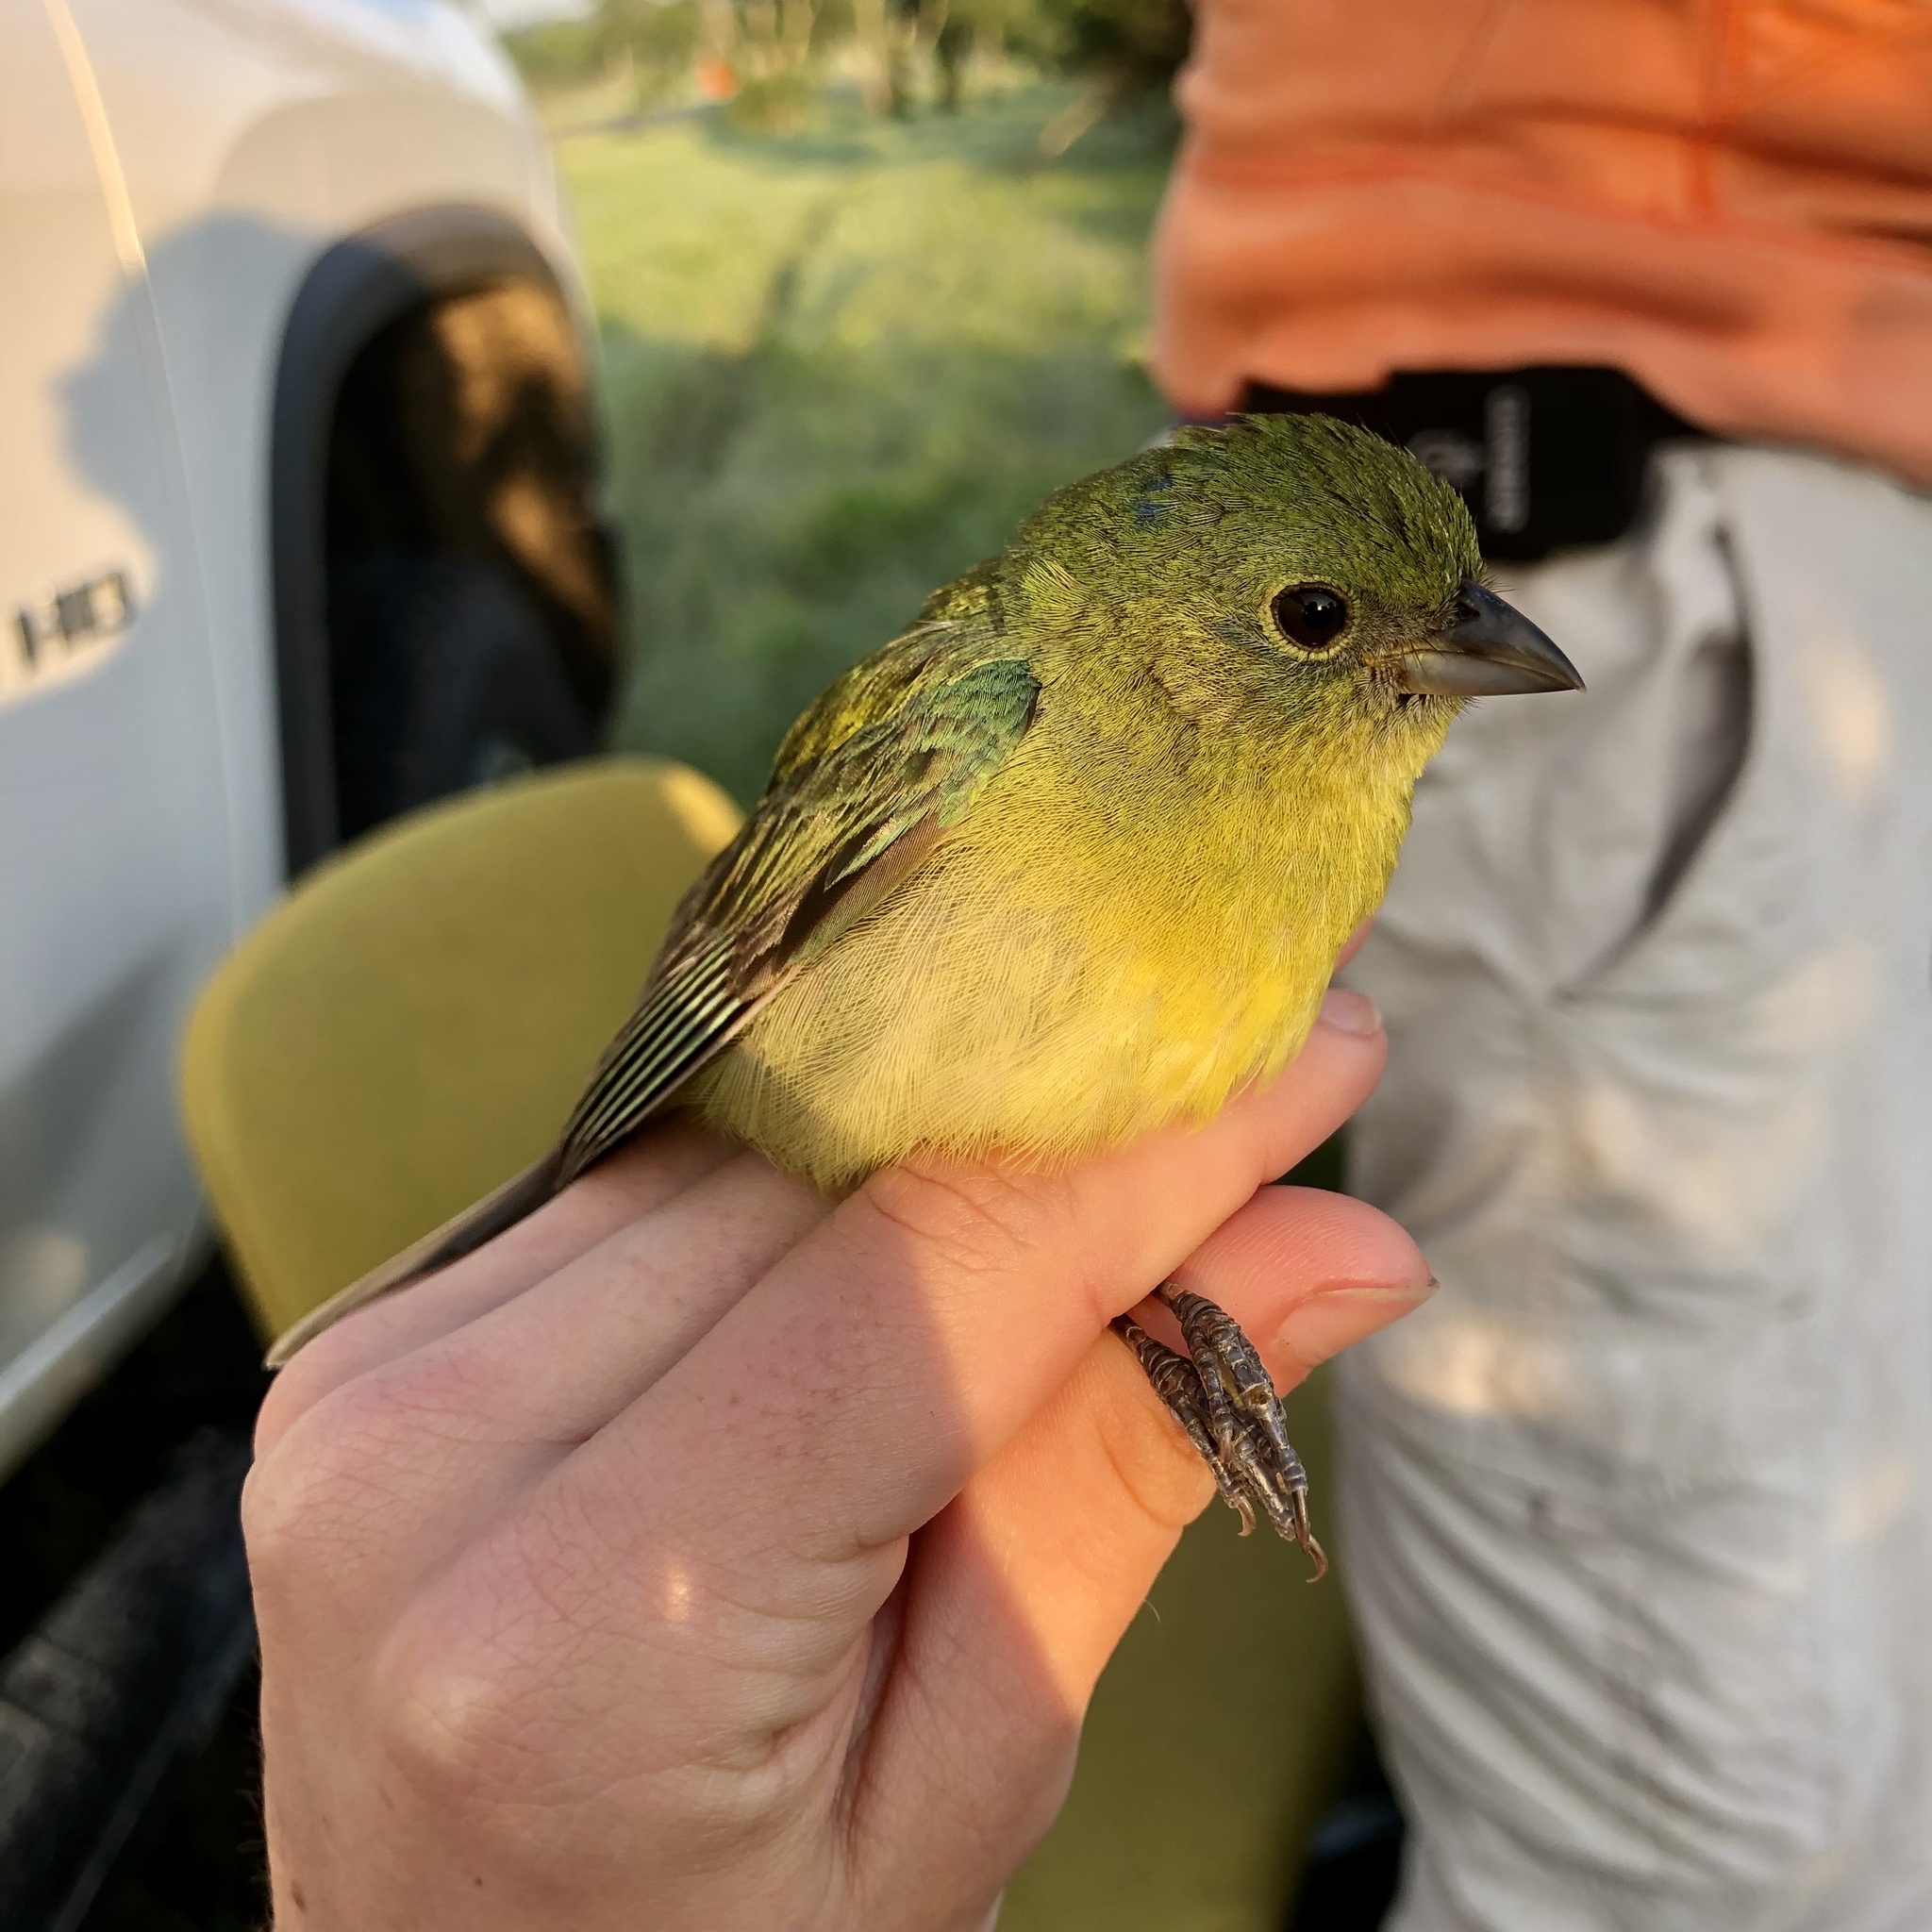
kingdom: Animalia
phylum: Chordata
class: Aves
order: Passeriformes
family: Cardinalidae
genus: Passerina
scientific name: Passerina ciris
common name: Painted bunting
